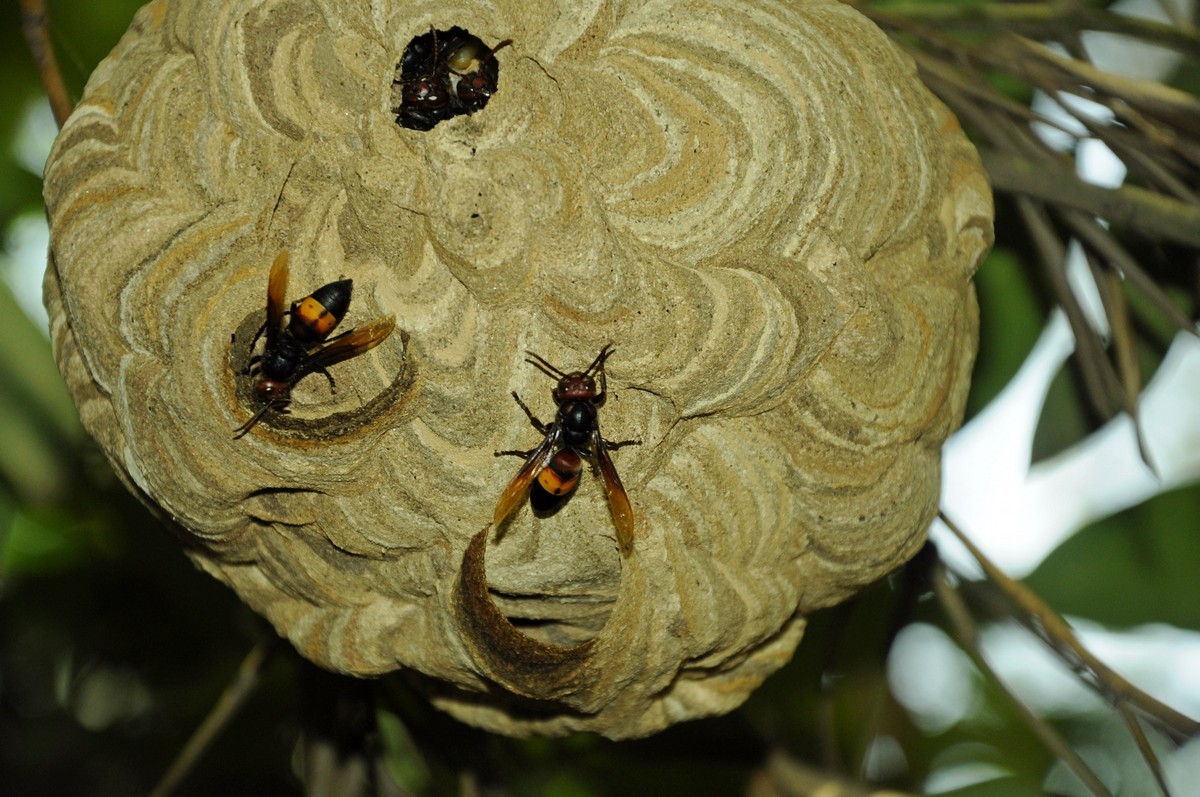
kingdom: Animalia
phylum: Arthropoda
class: Insecta
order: Hymenoptera
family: Vespidae
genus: Vespa
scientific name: Vespa affinis
